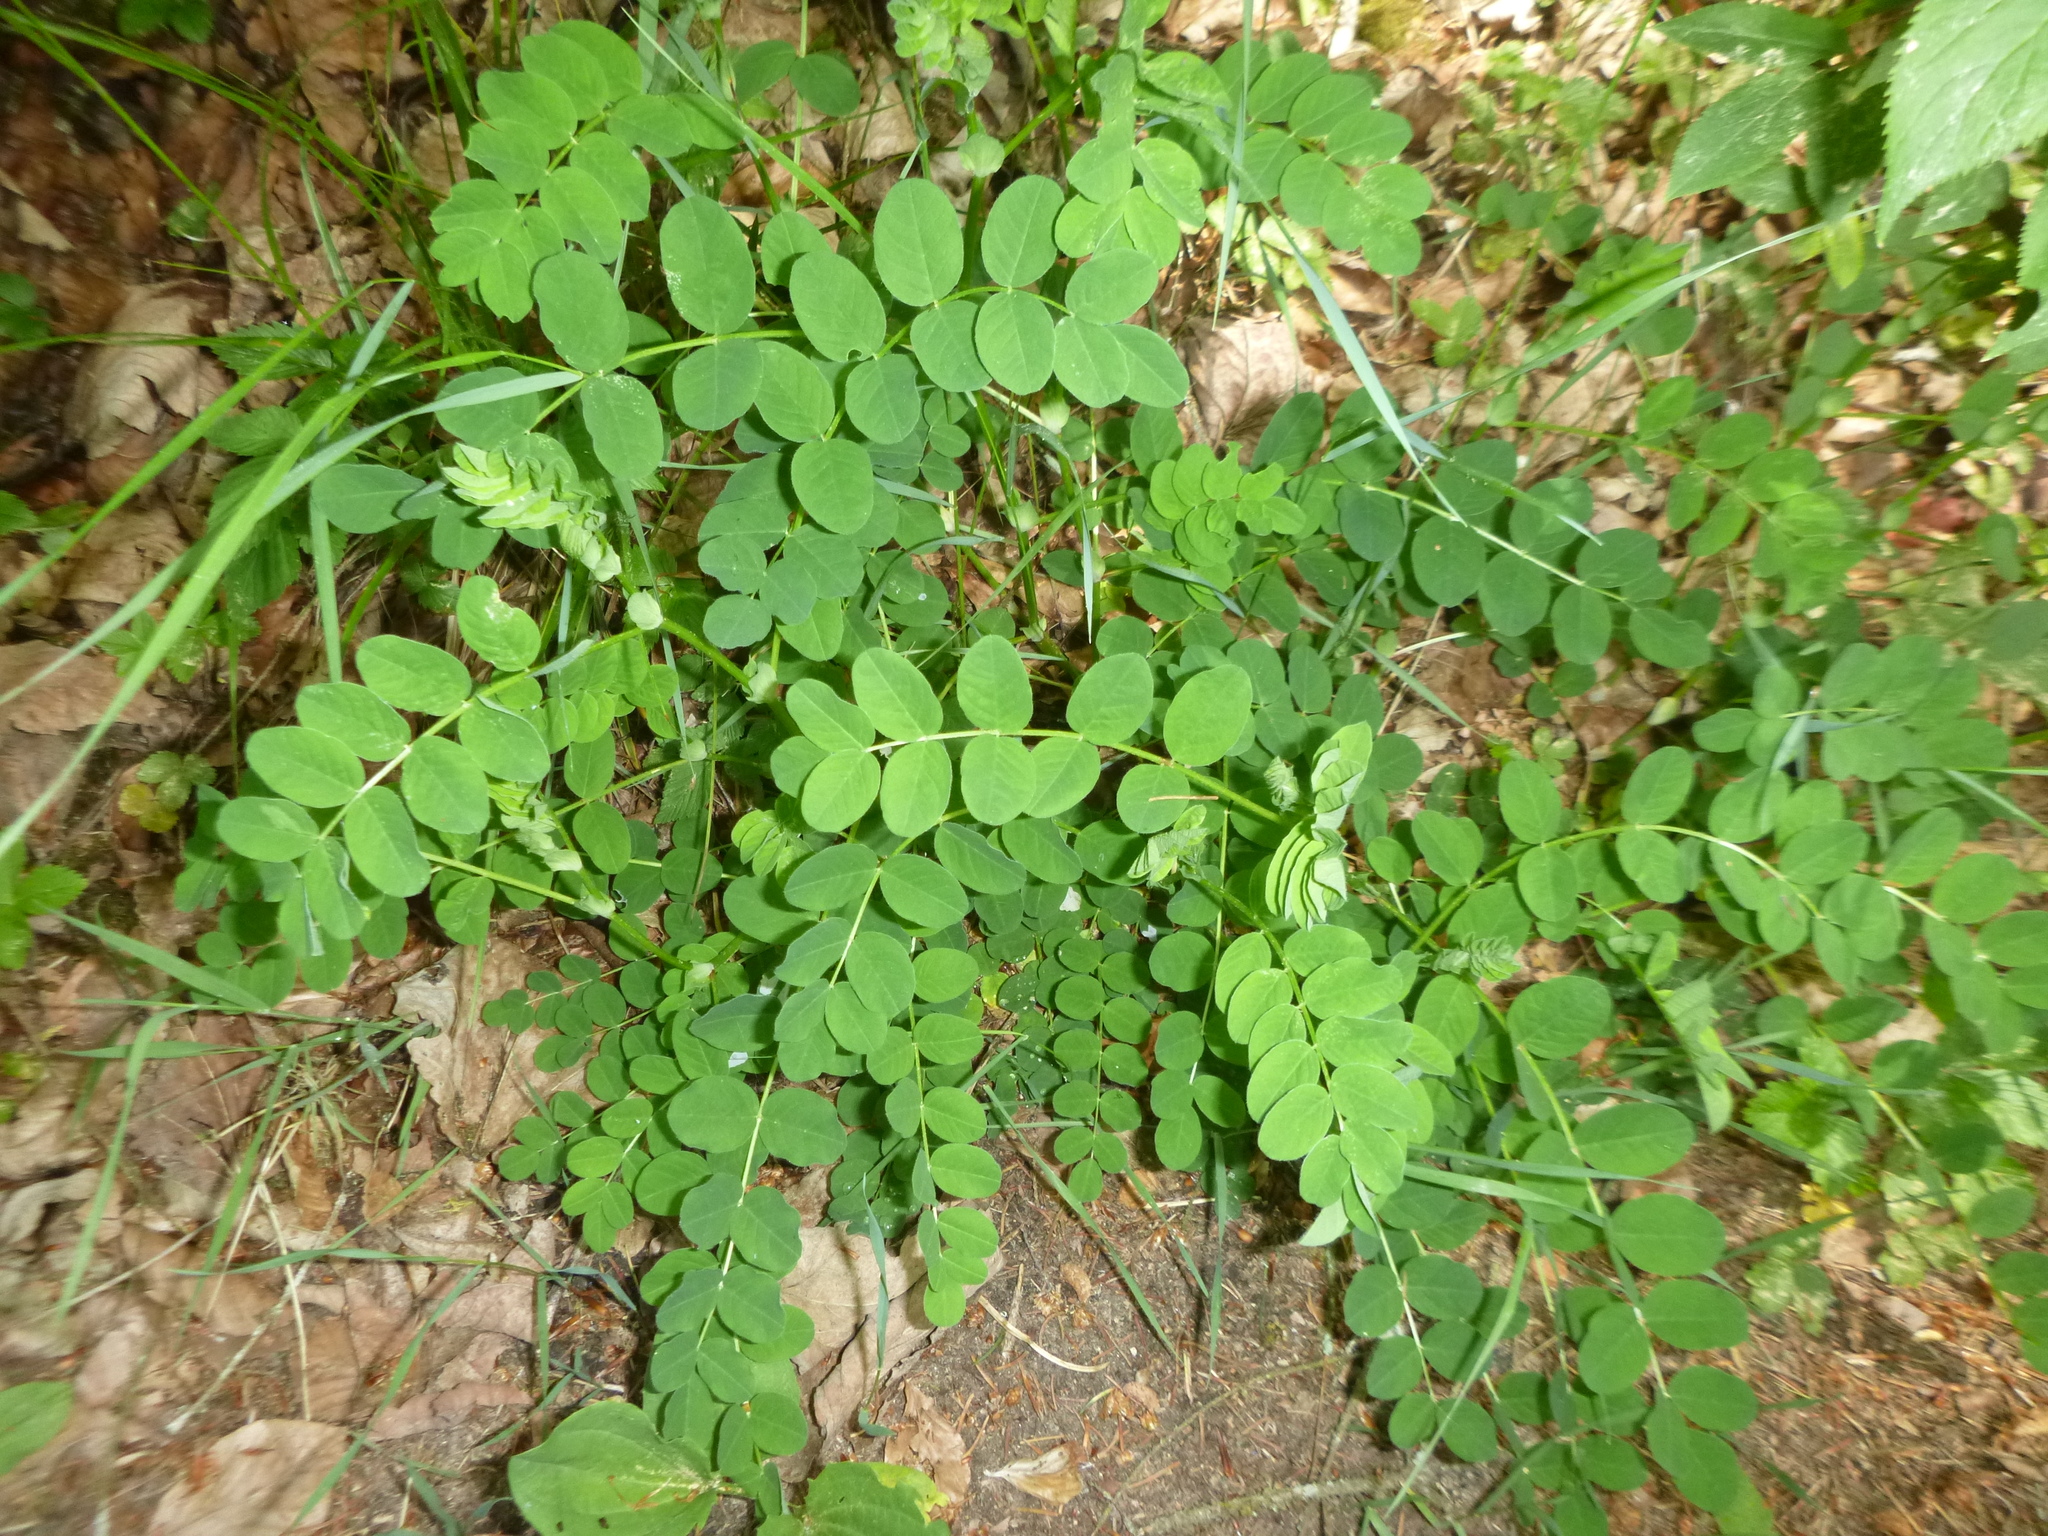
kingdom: Plantae
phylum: Tracheophyta
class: Magnoliopsida
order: Fabales
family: Fabaceae
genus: Astragalus
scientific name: Astragalus glycyphyllos
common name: Wild liquorice
